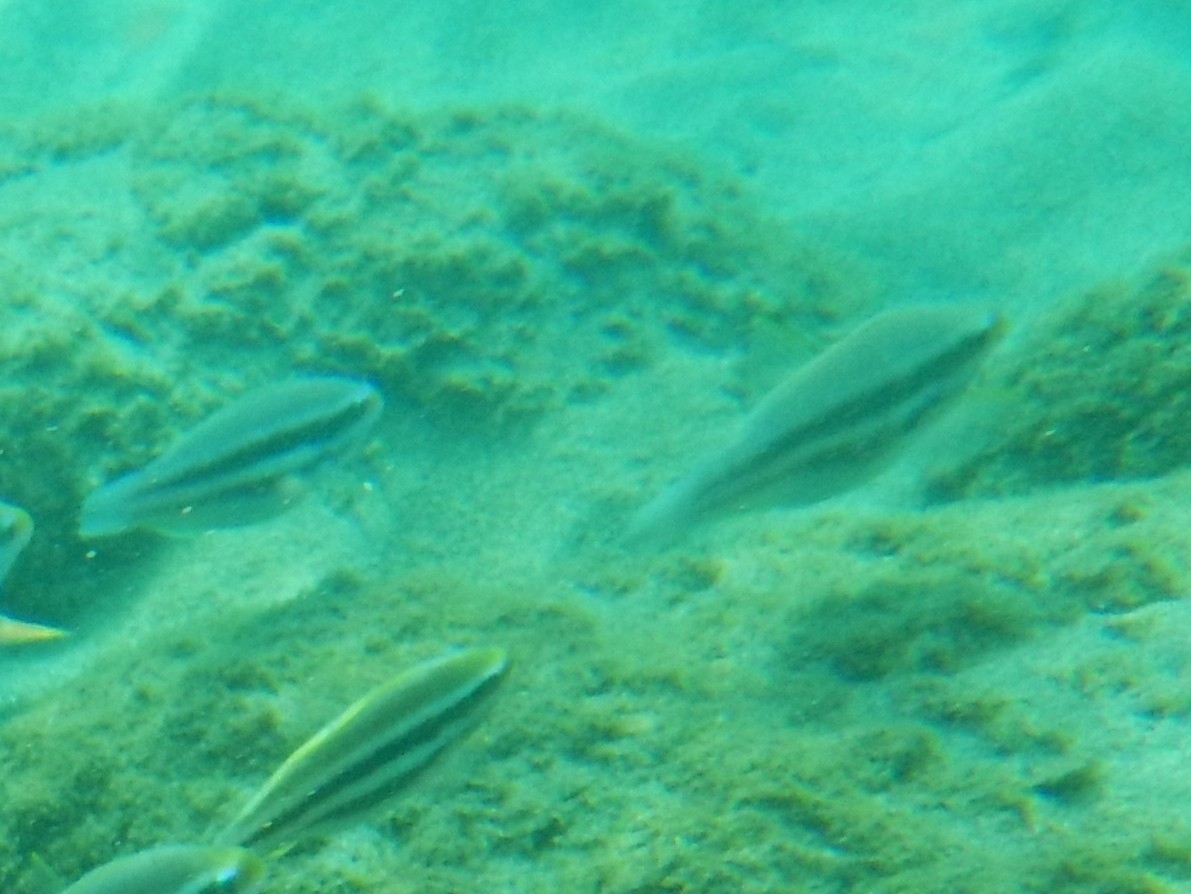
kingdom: Animalia
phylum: Chordata
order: Perciformes
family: Scaridae
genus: Scarus
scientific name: Scarus iseri
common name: Striped parrotfish
